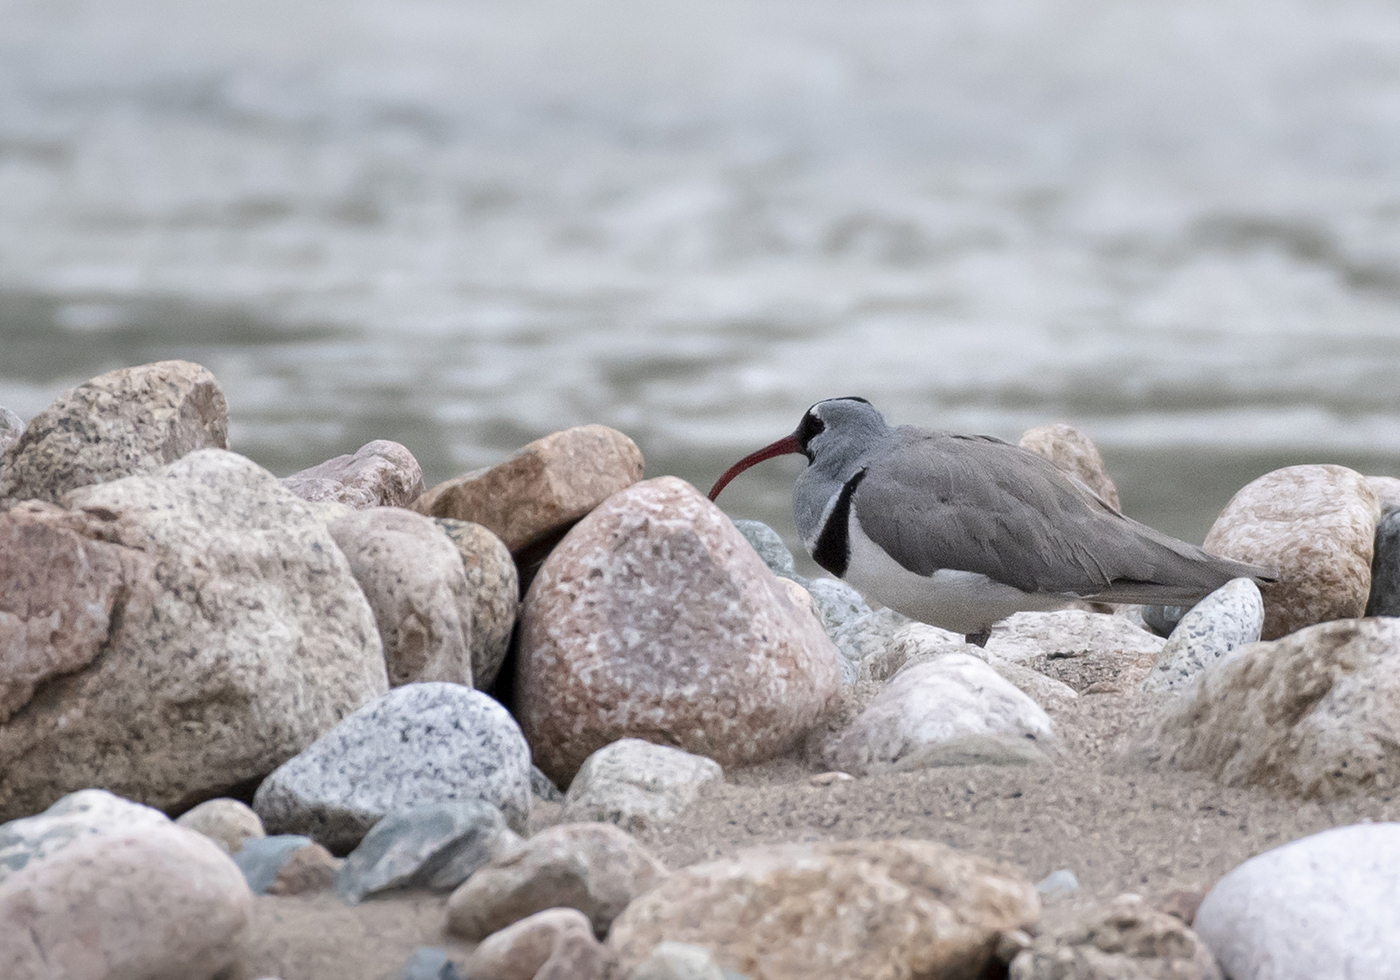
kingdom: Animalia
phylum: Chordata
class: Aves
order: Charadriiformes
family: Ibidorhynchidae
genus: Ibidorhyncha
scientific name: Ibidorhyncha struthersii
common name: Ibisbill
